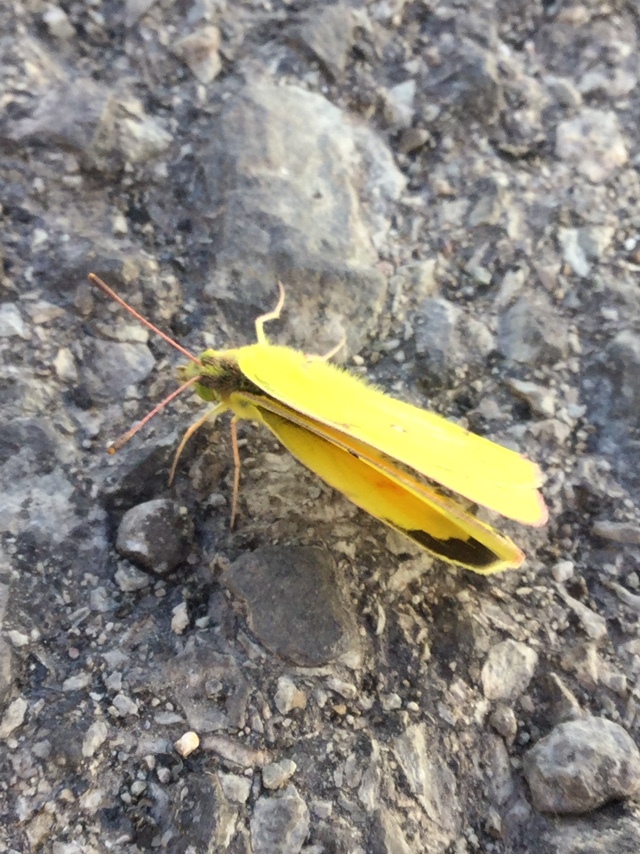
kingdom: Animalia
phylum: Arthropoda
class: Insecta
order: Lepidoptera
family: Pieridae
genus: Colias
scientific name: Colias eurytheme
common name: Alfalfa butterfly
